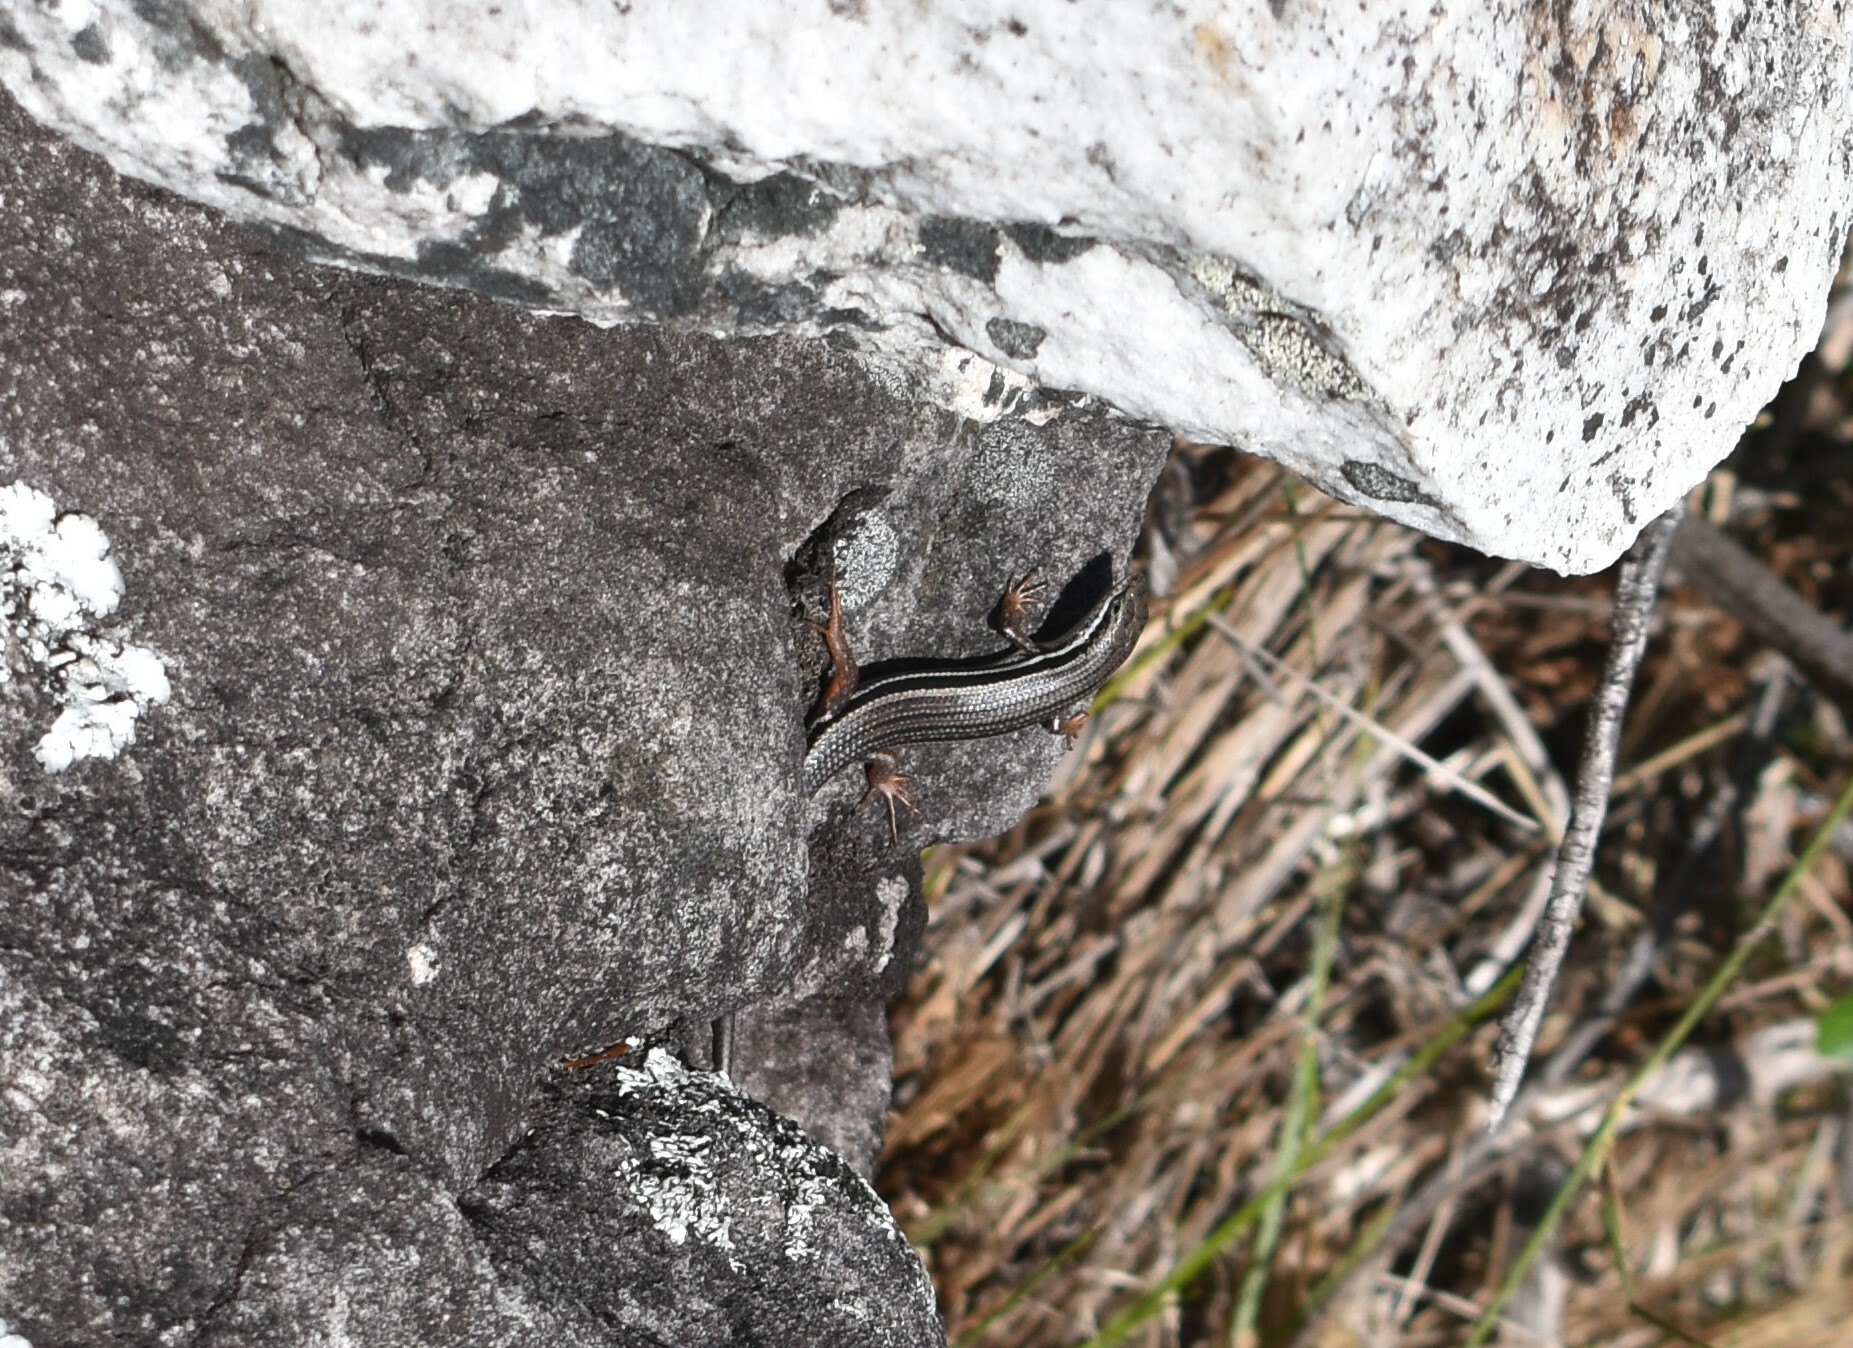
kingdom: Animalia
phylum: Chordata
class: Squamata
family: Scincidae
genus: Trachylepis
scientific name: Trachylepis homalocephala
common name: Red-sided skink
